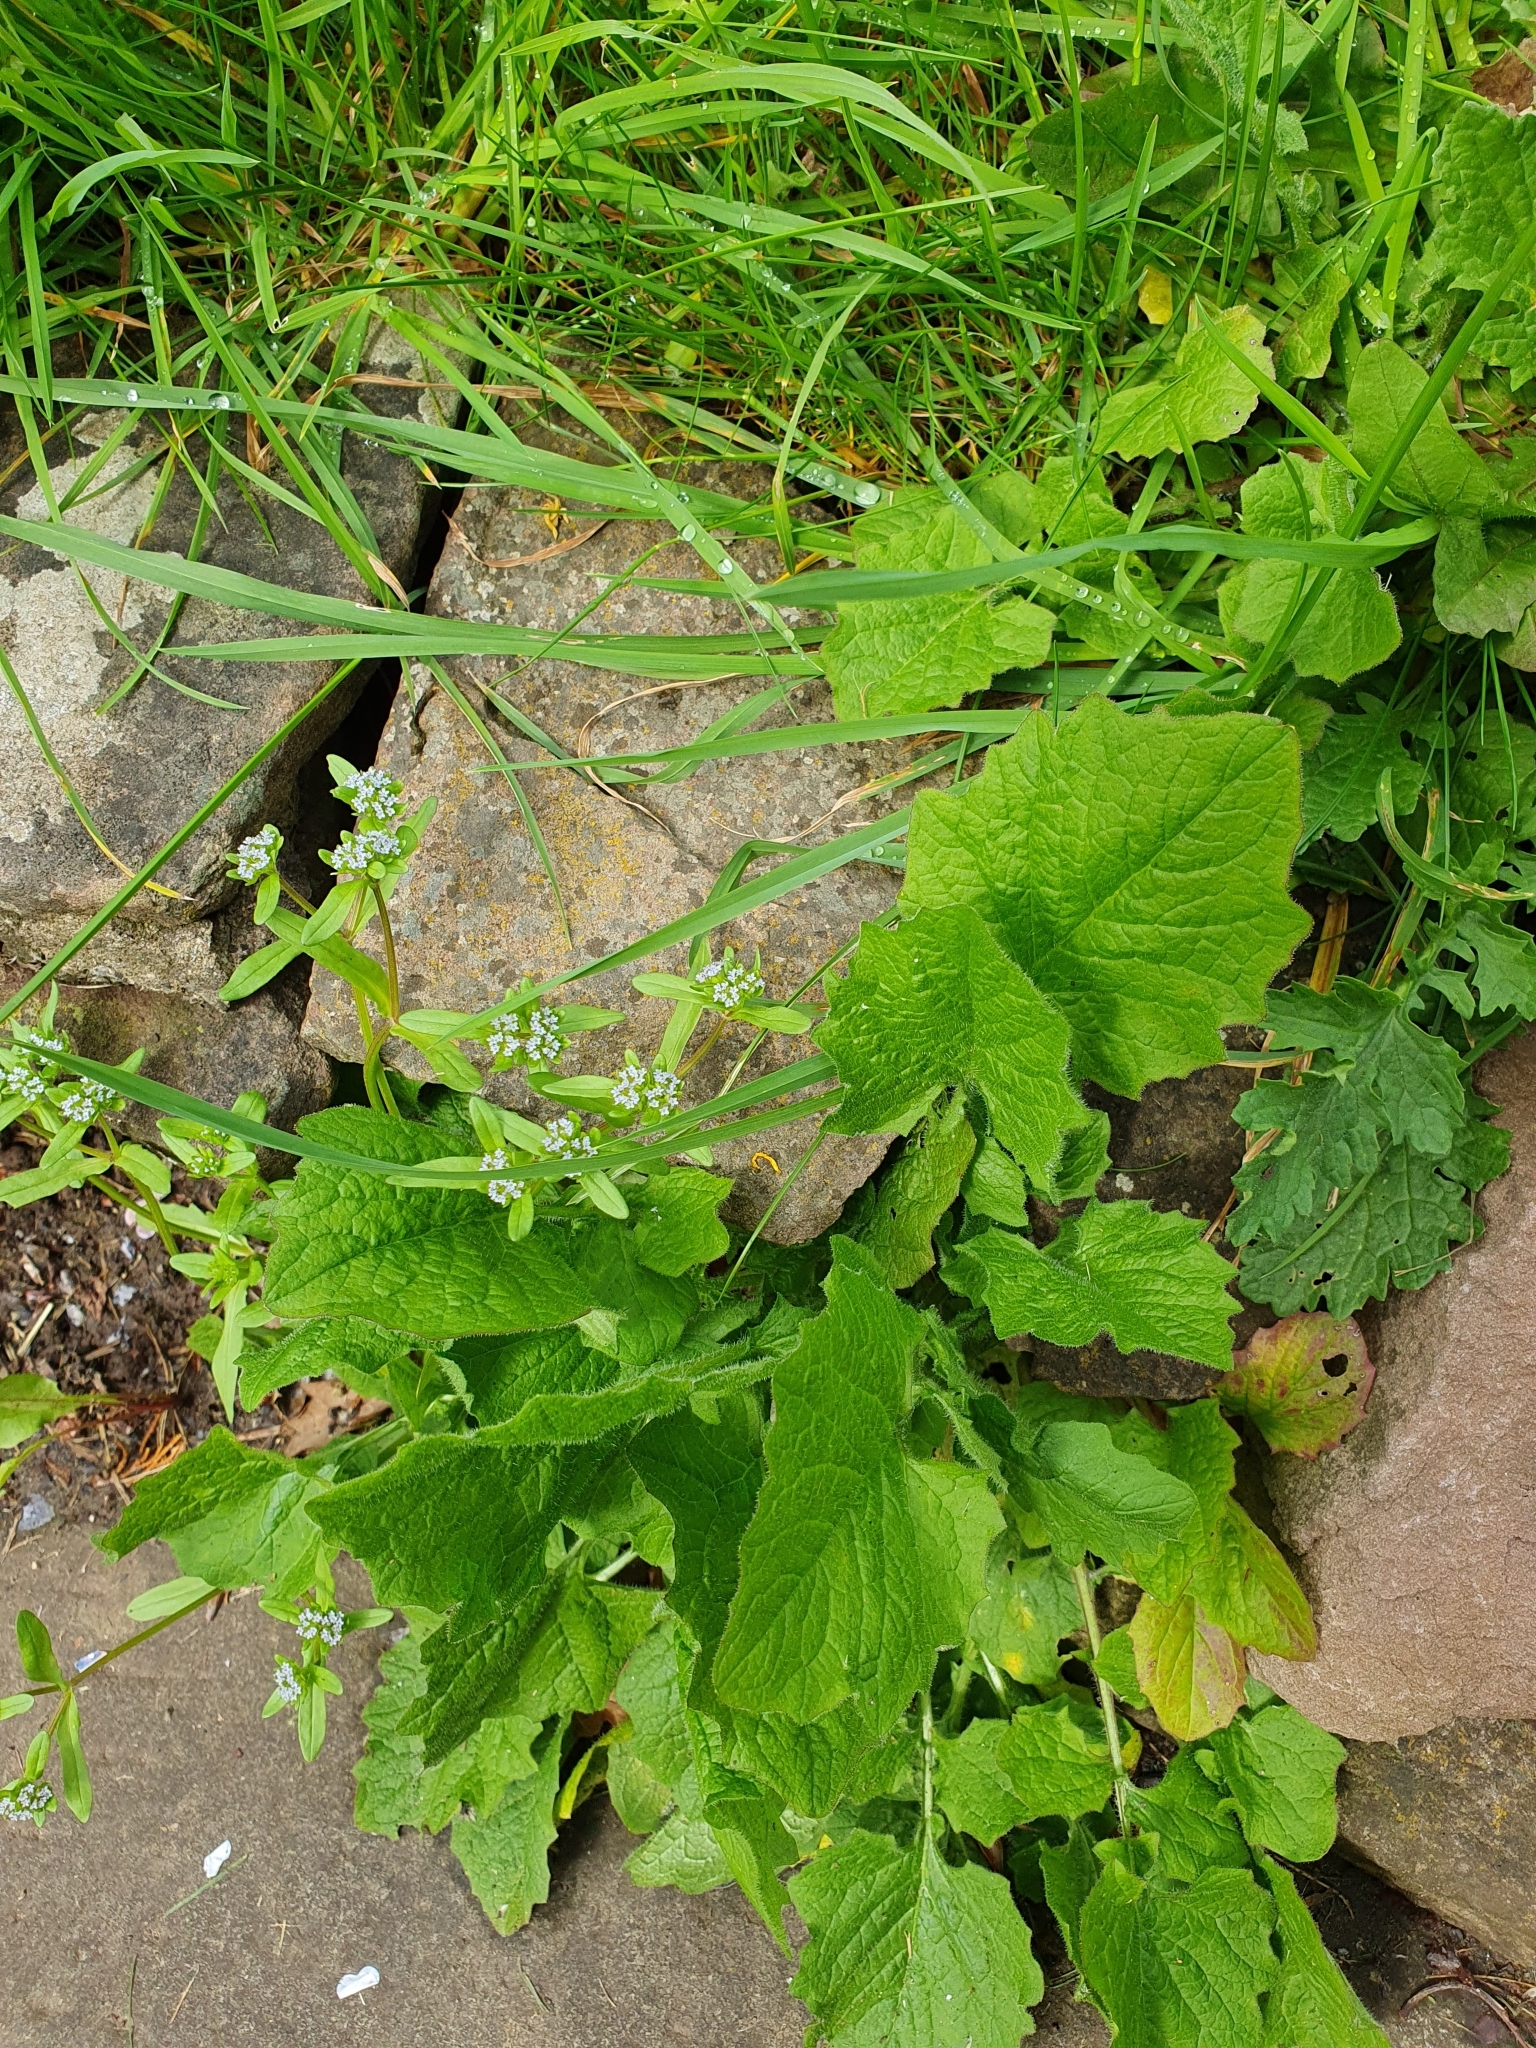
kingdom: Plantae
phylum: Tracheophyta
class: Magnoliopsida
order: Asterales
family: Asteraceae
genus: Lapsana
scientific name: Lapsana communis
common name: Nipplewort
